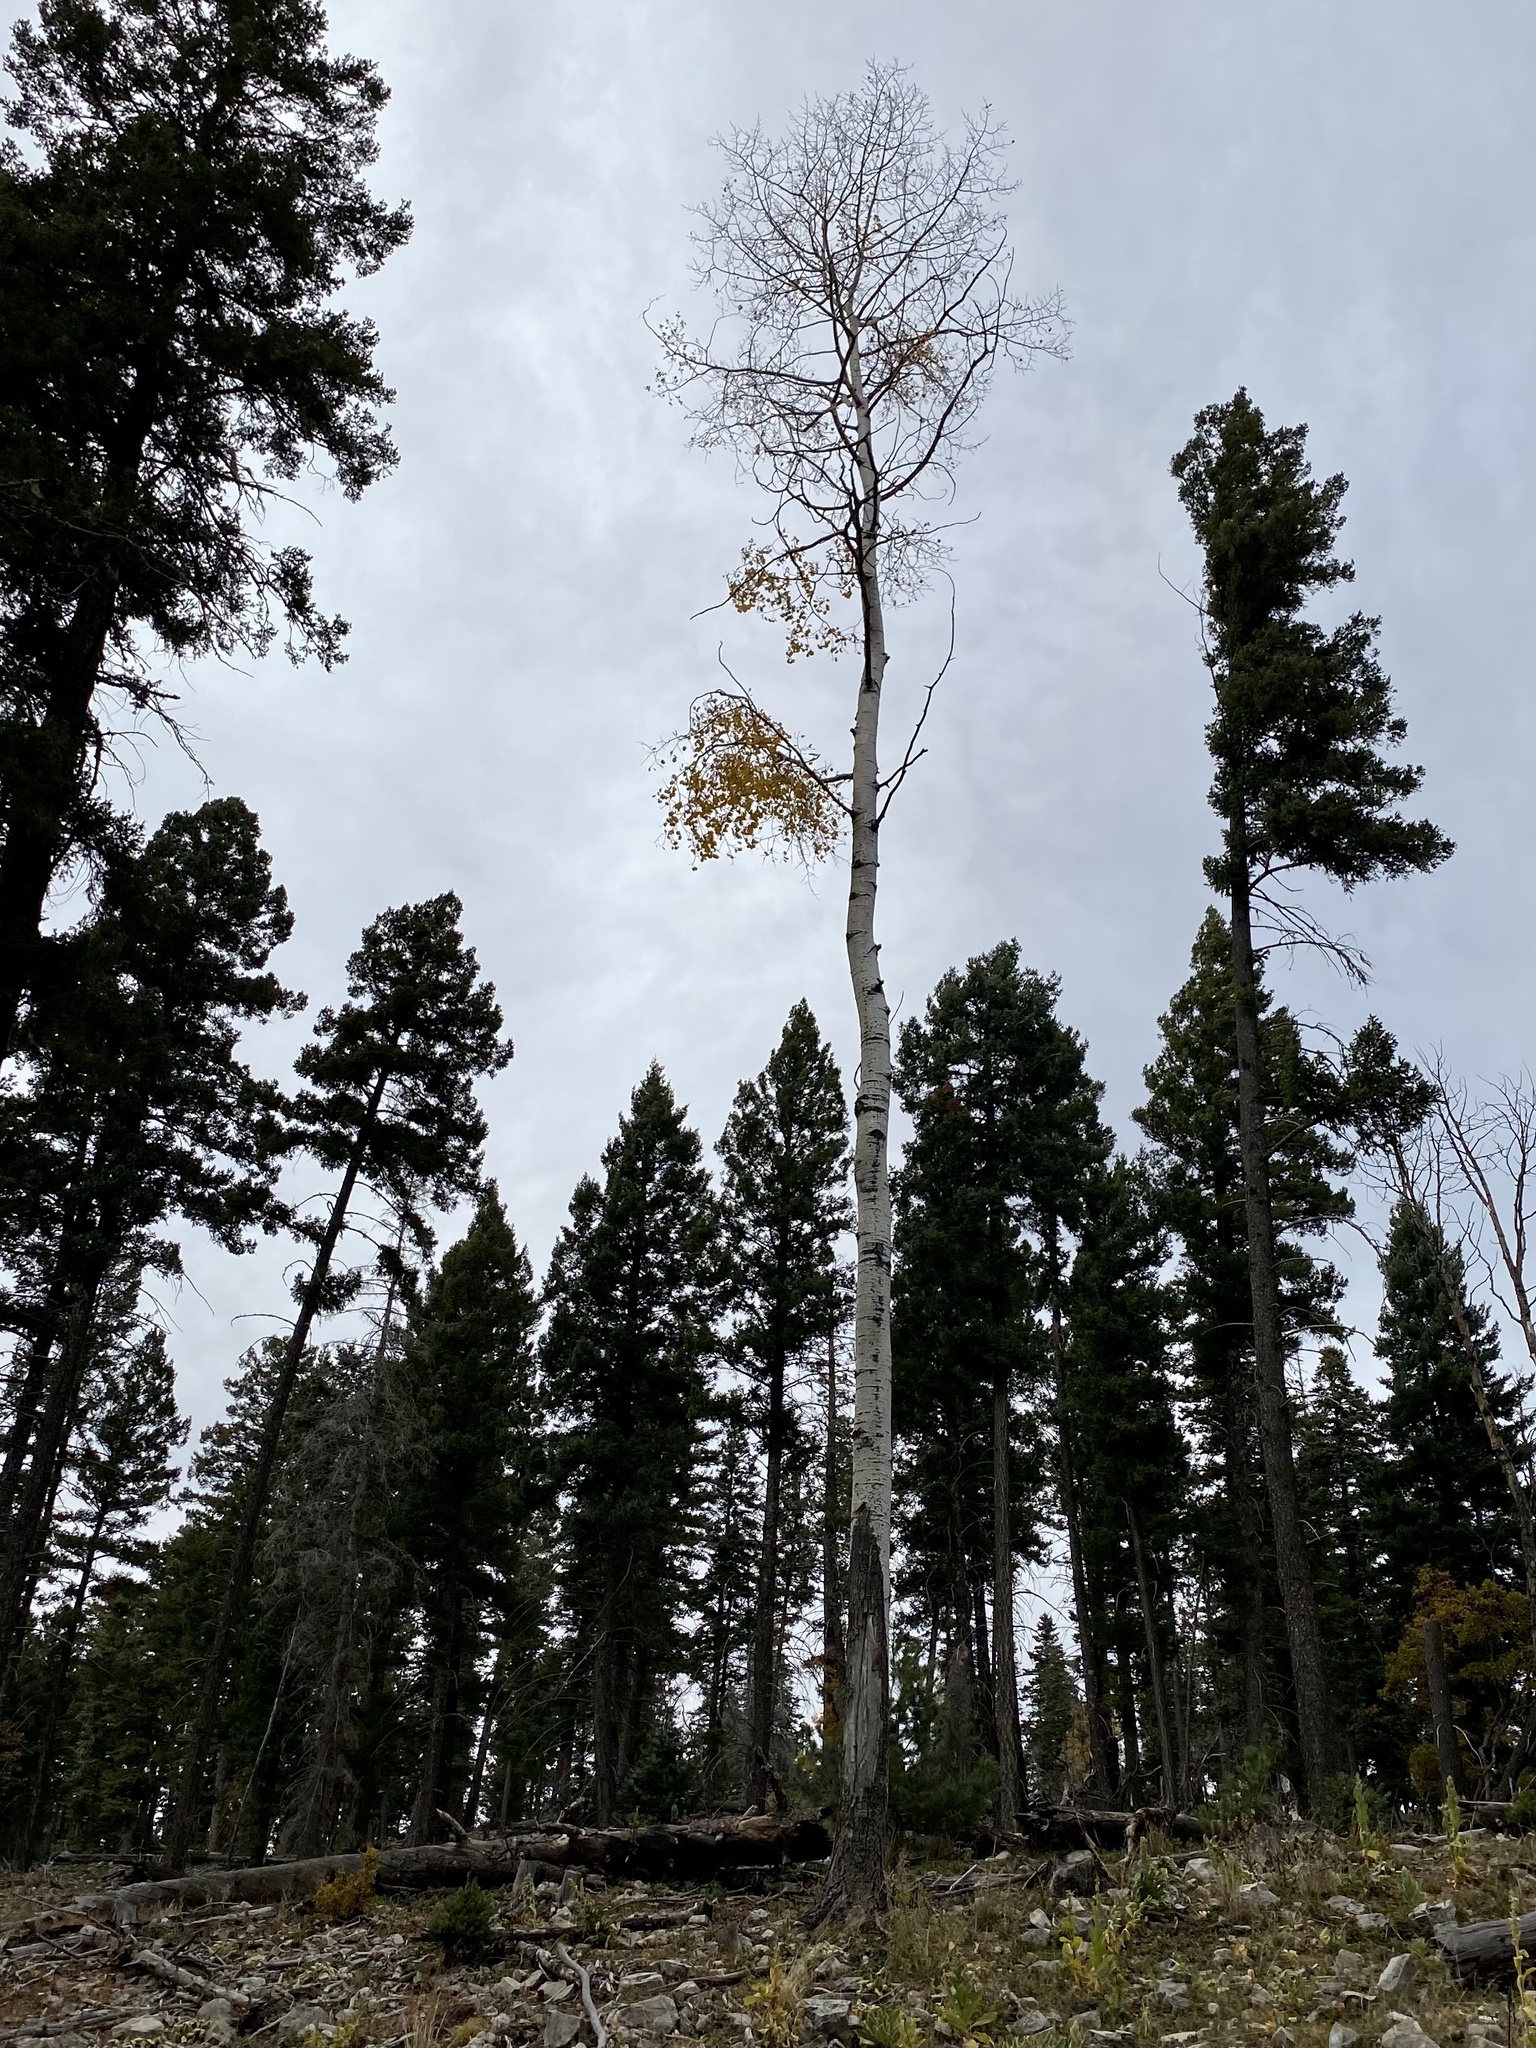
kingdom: Plantae
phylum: Tracheophyta
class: Magnoliopsida
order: Malpighiales
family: Salicaceae
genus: Populus
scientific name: Populus tremuloides
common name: Quaking aspen
